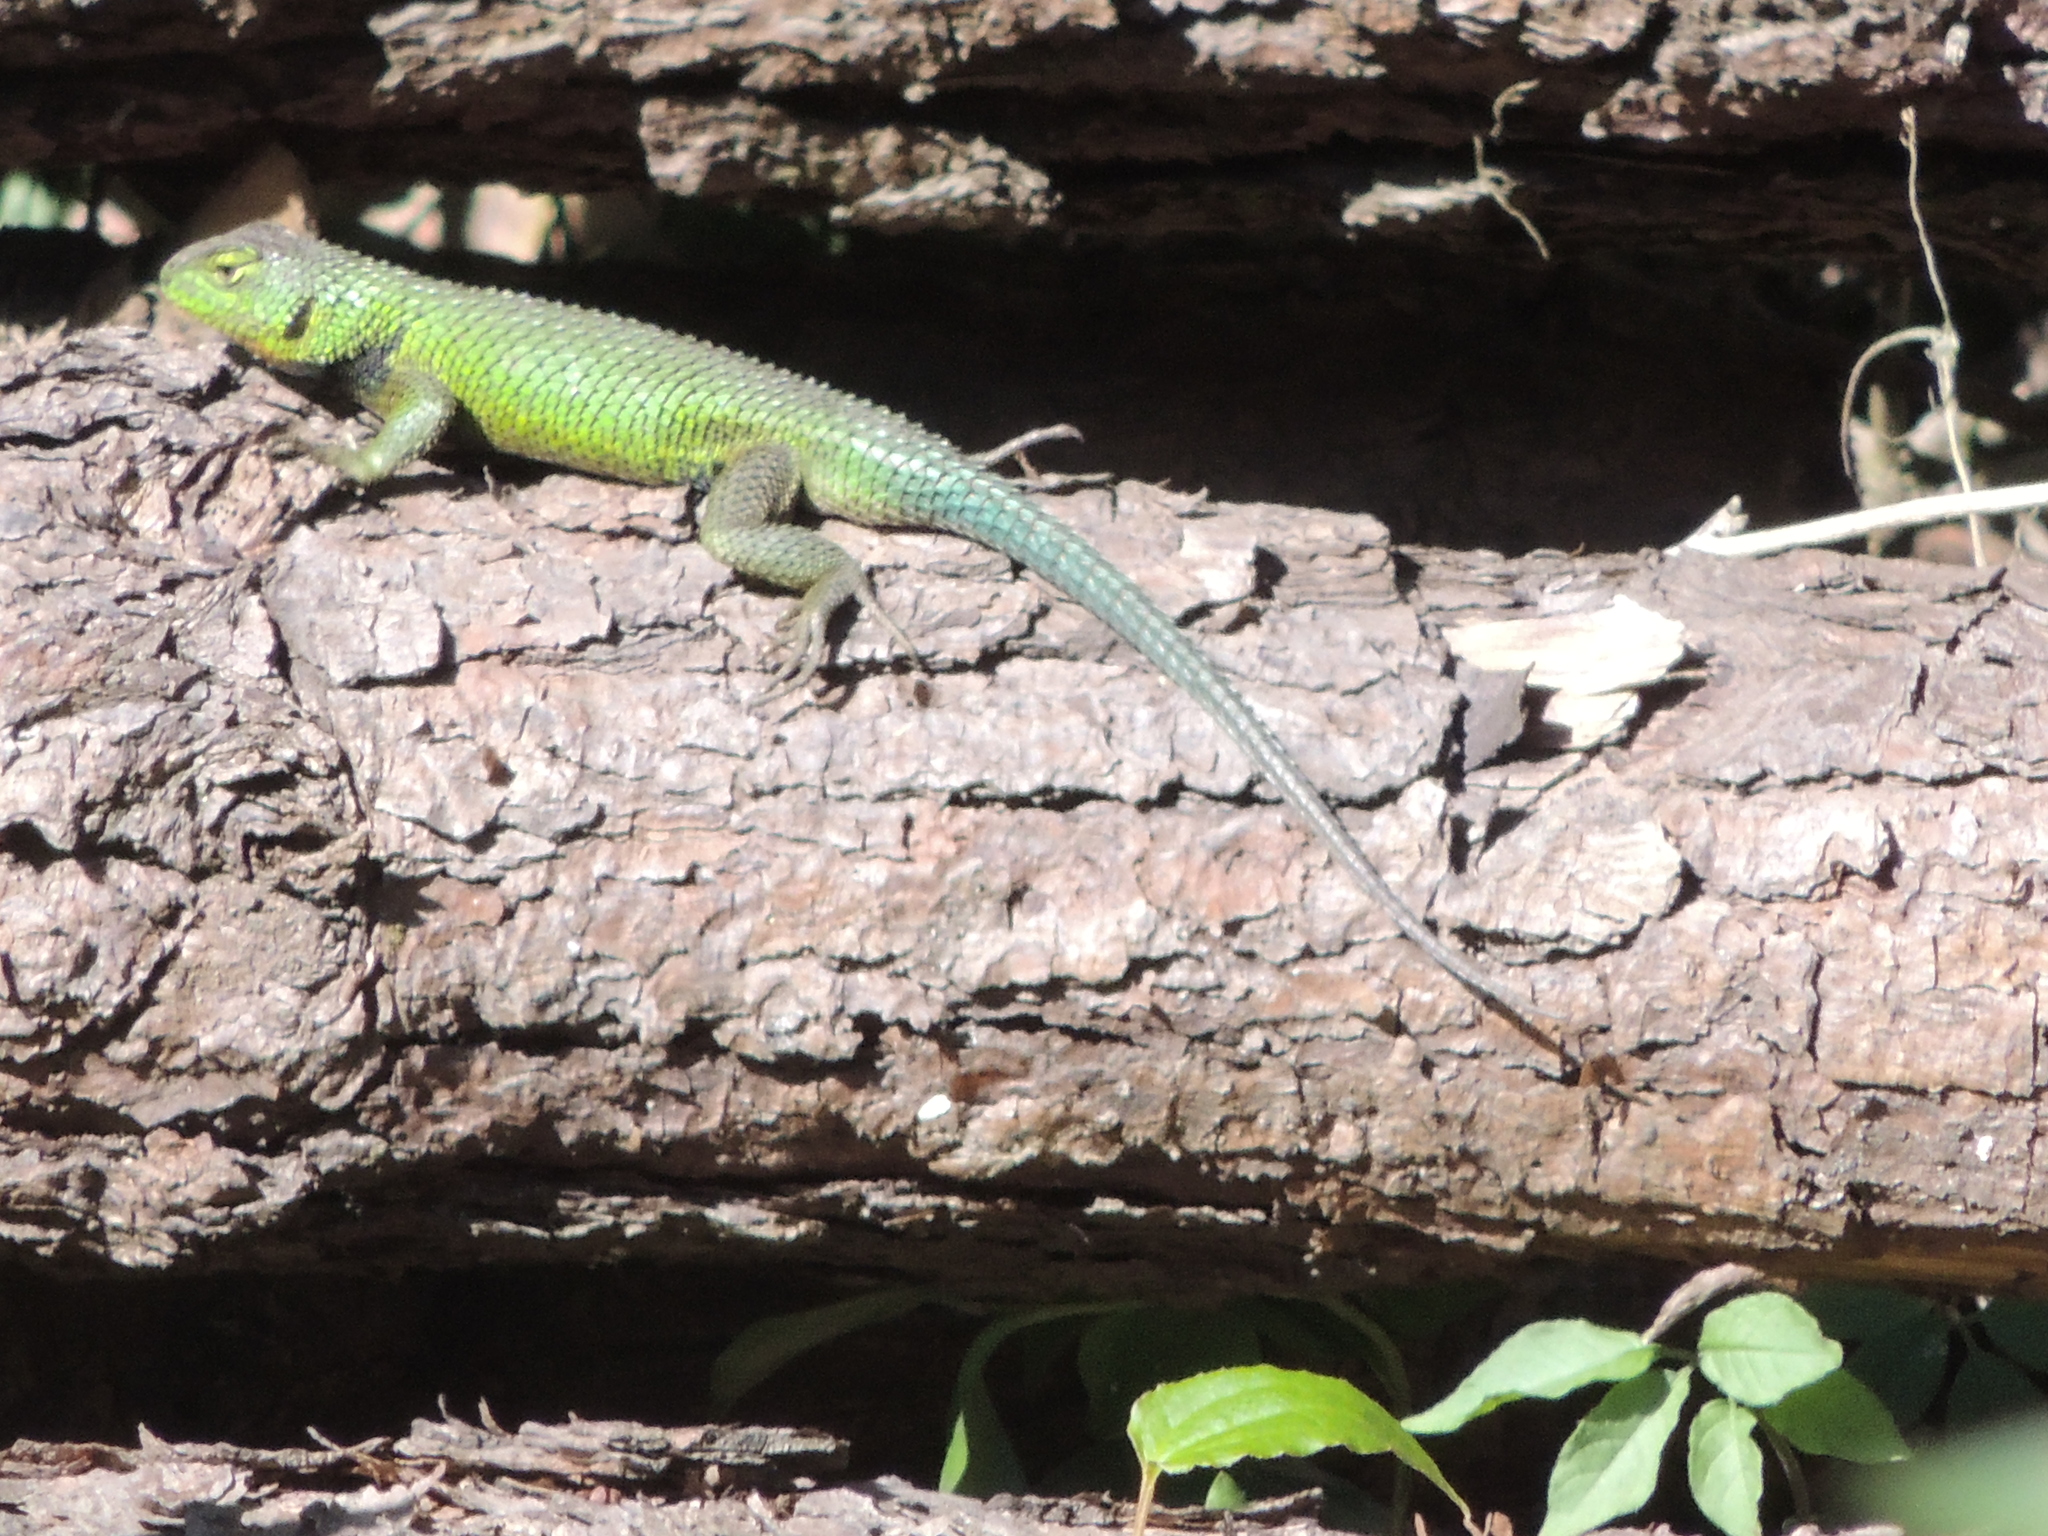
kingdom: Animalia
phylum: Chordata
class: Squamata
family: Phrynosomatidae
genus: Sceloporus
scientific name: Sceloporus formosus
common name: Mexican emerald spiny lizard
